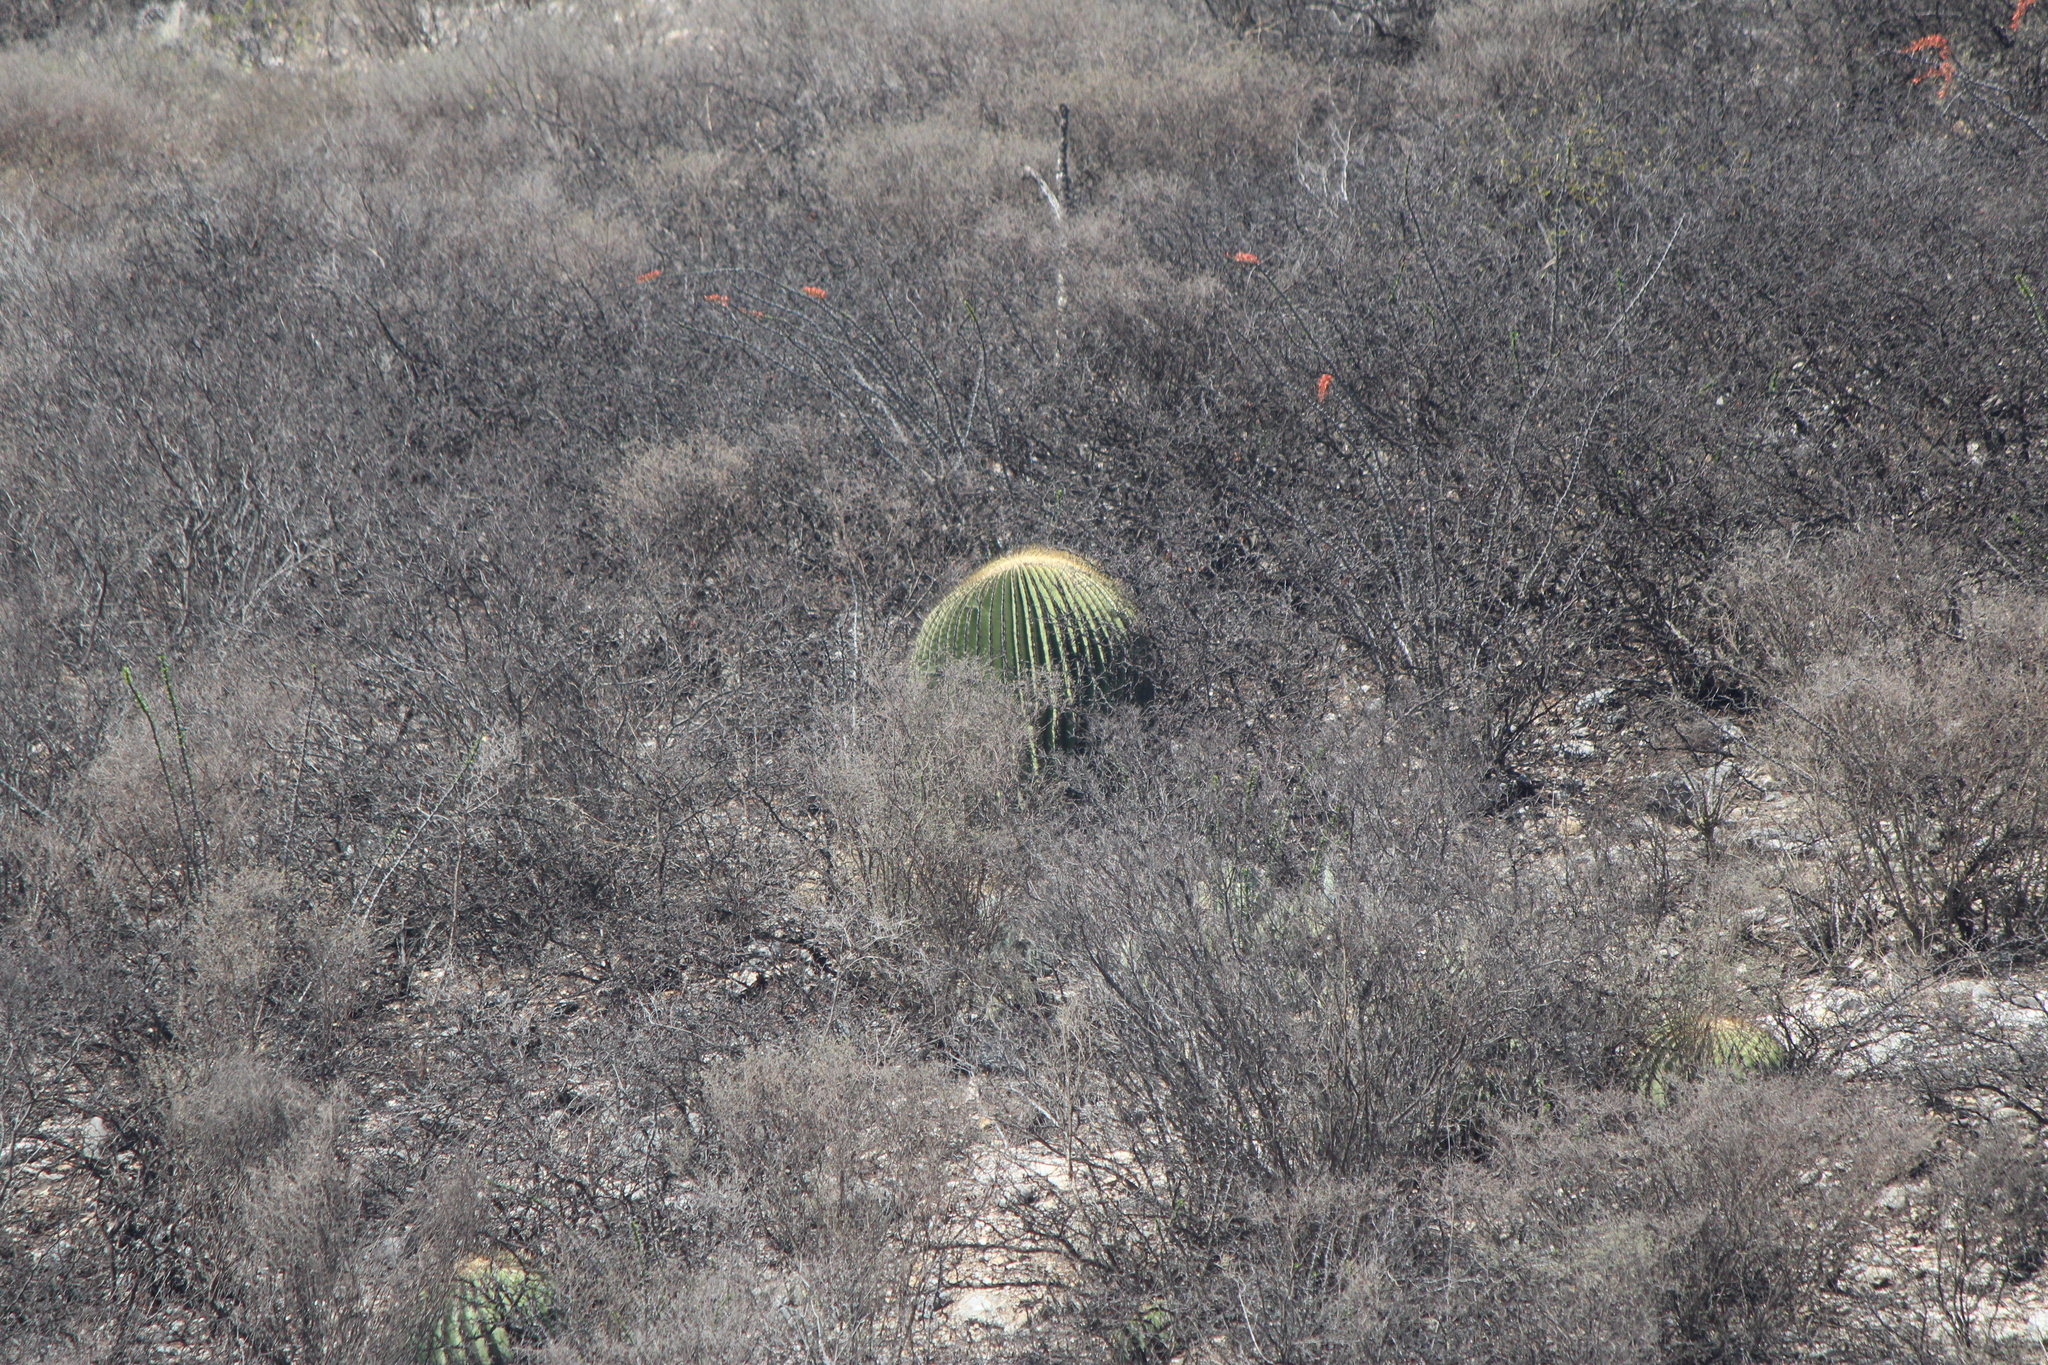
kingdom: Plantae
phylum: Tracheophyta
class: Magnoliopsida
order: Caryophyllales
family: Cactaceae
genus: Echinocactus
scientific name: Echinocactus platyacanthus
